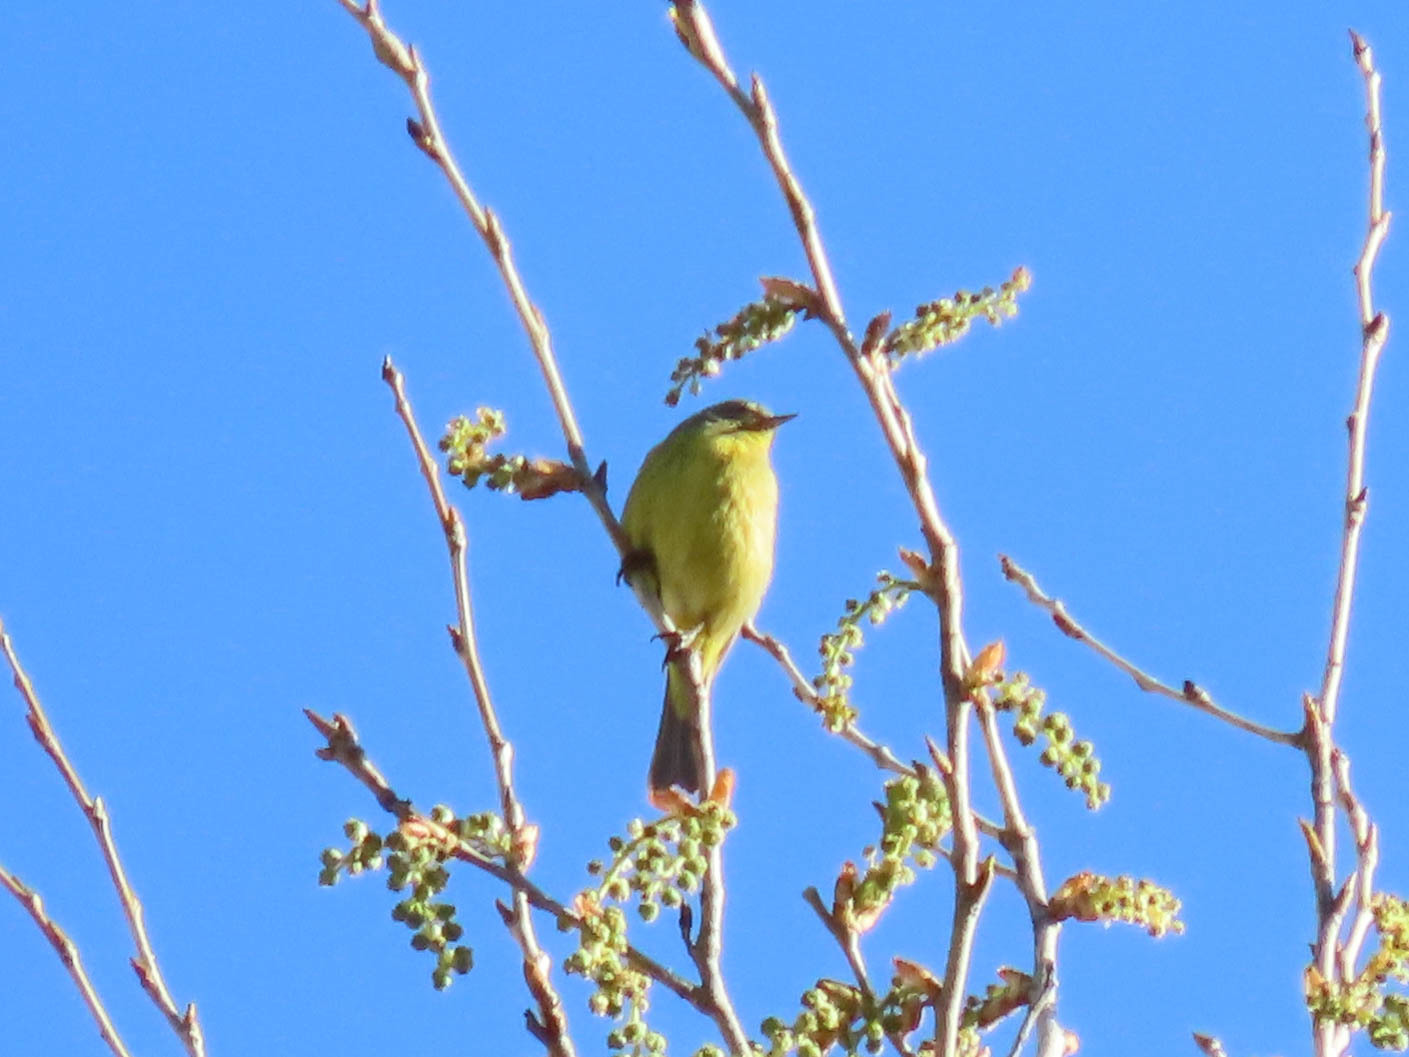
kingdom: Animalia
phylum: Chordata
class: Aves
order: Passeriformes
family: Parulidae
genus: Leiothlypis
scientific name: Leiothlypis celata
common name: Orange-crowned warbler
